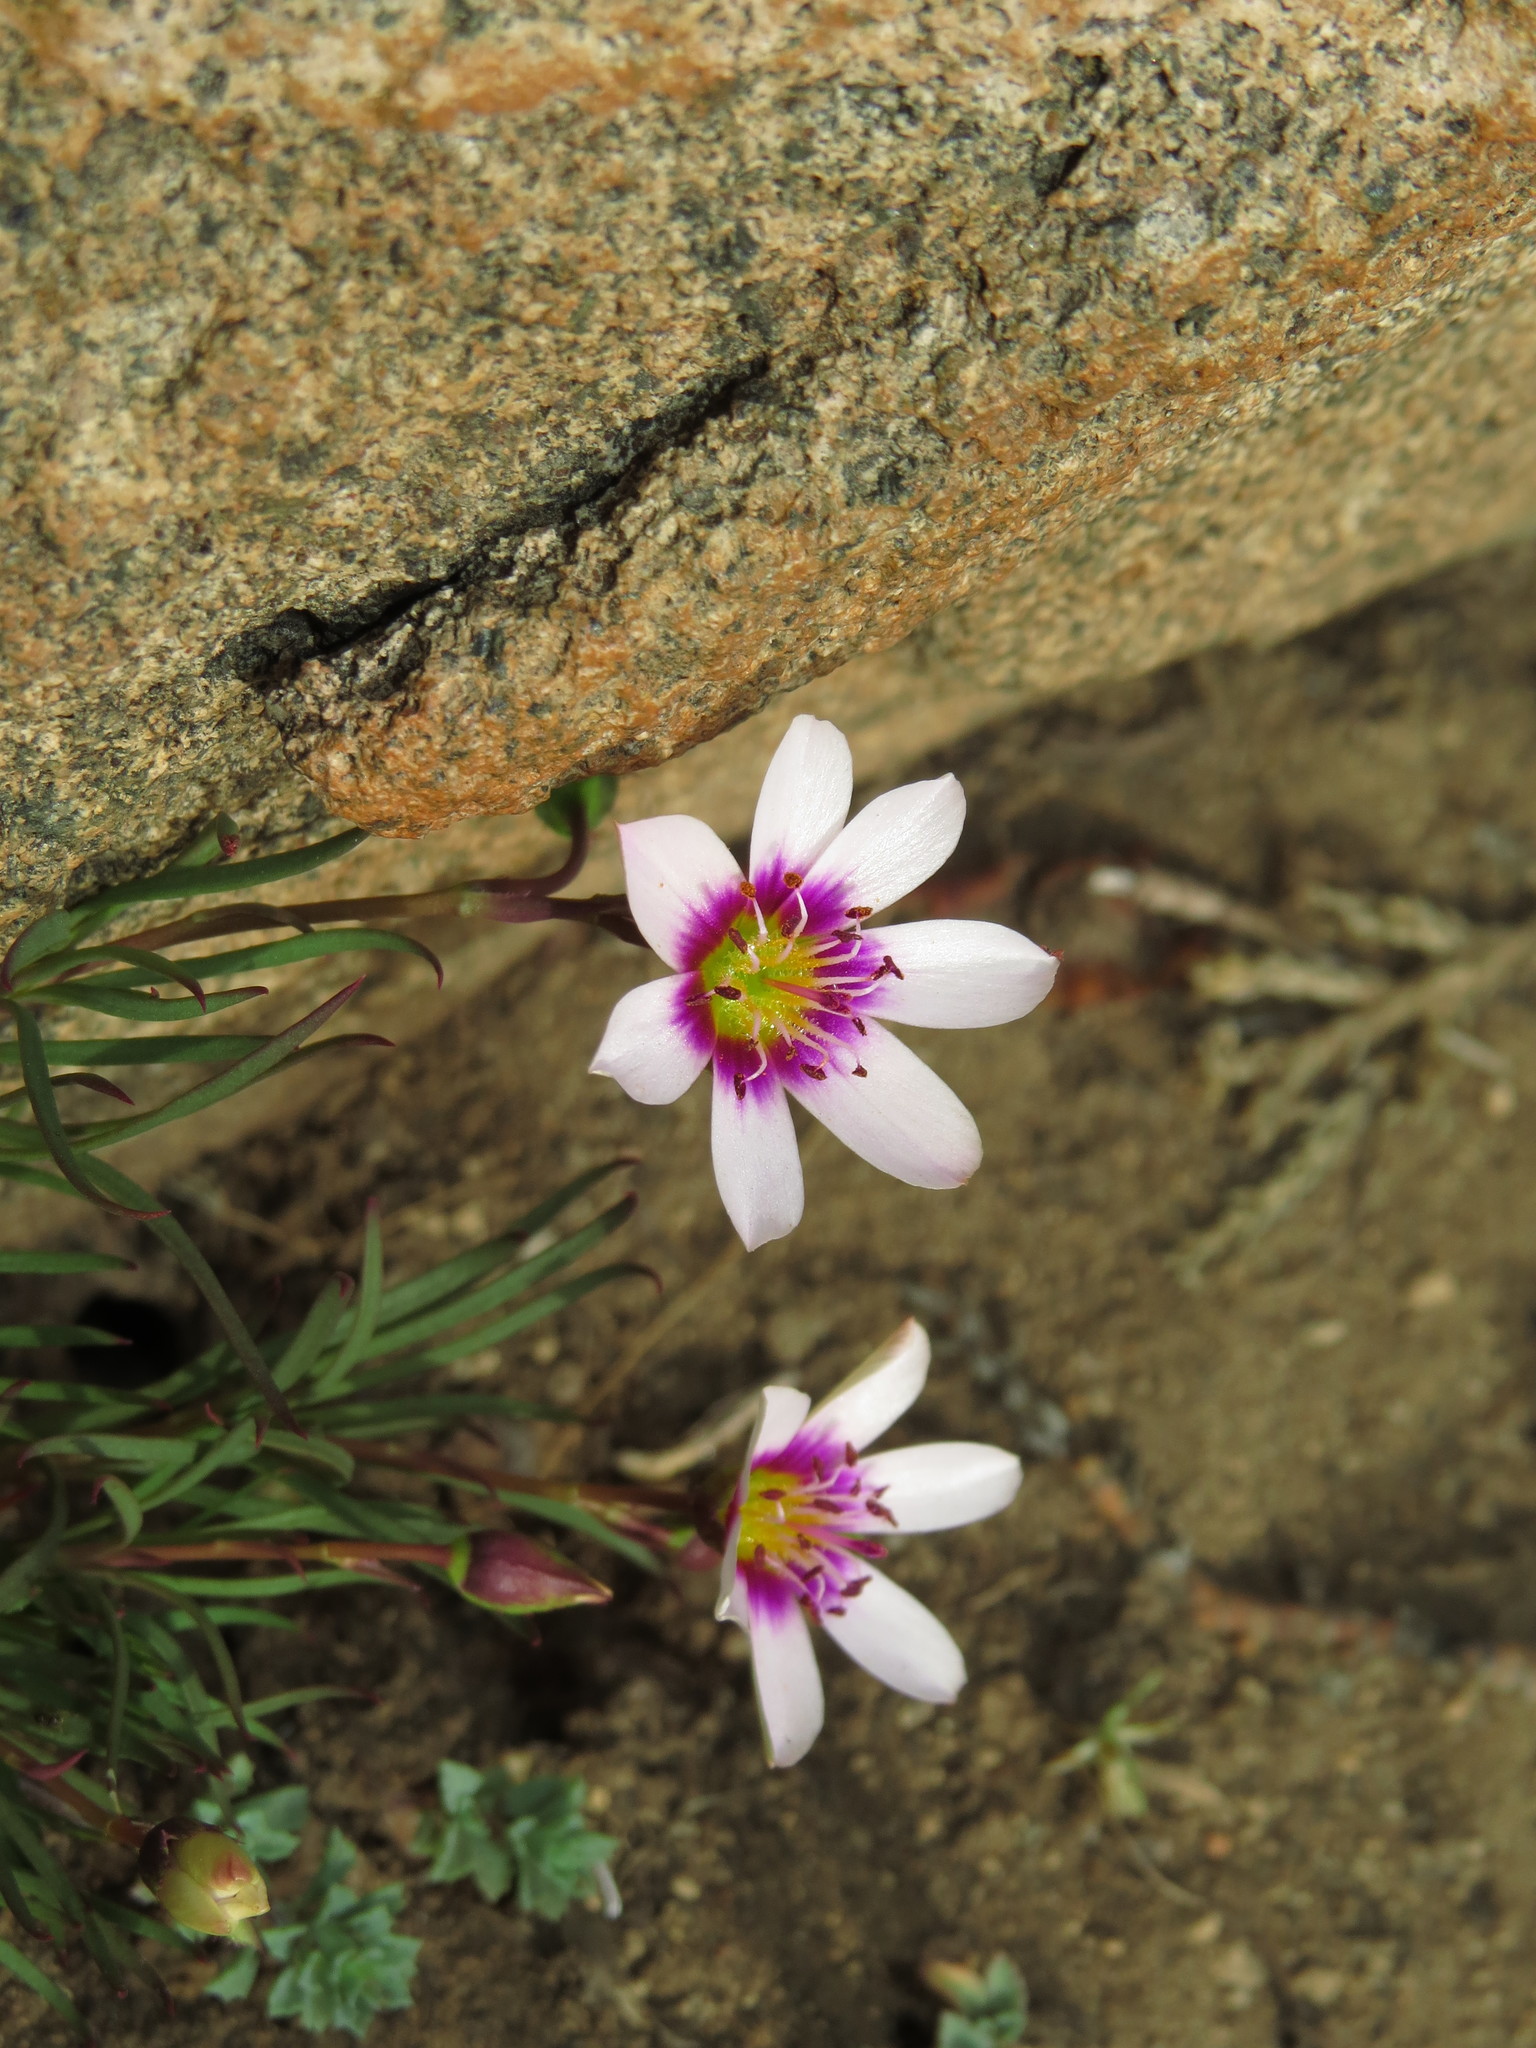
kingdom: Plantae
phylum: Tracheophyta
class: Magnoliopsida
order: Caryophyllales
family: Montiaceae
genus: Montiopsis
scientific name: Montiopsis andicola
